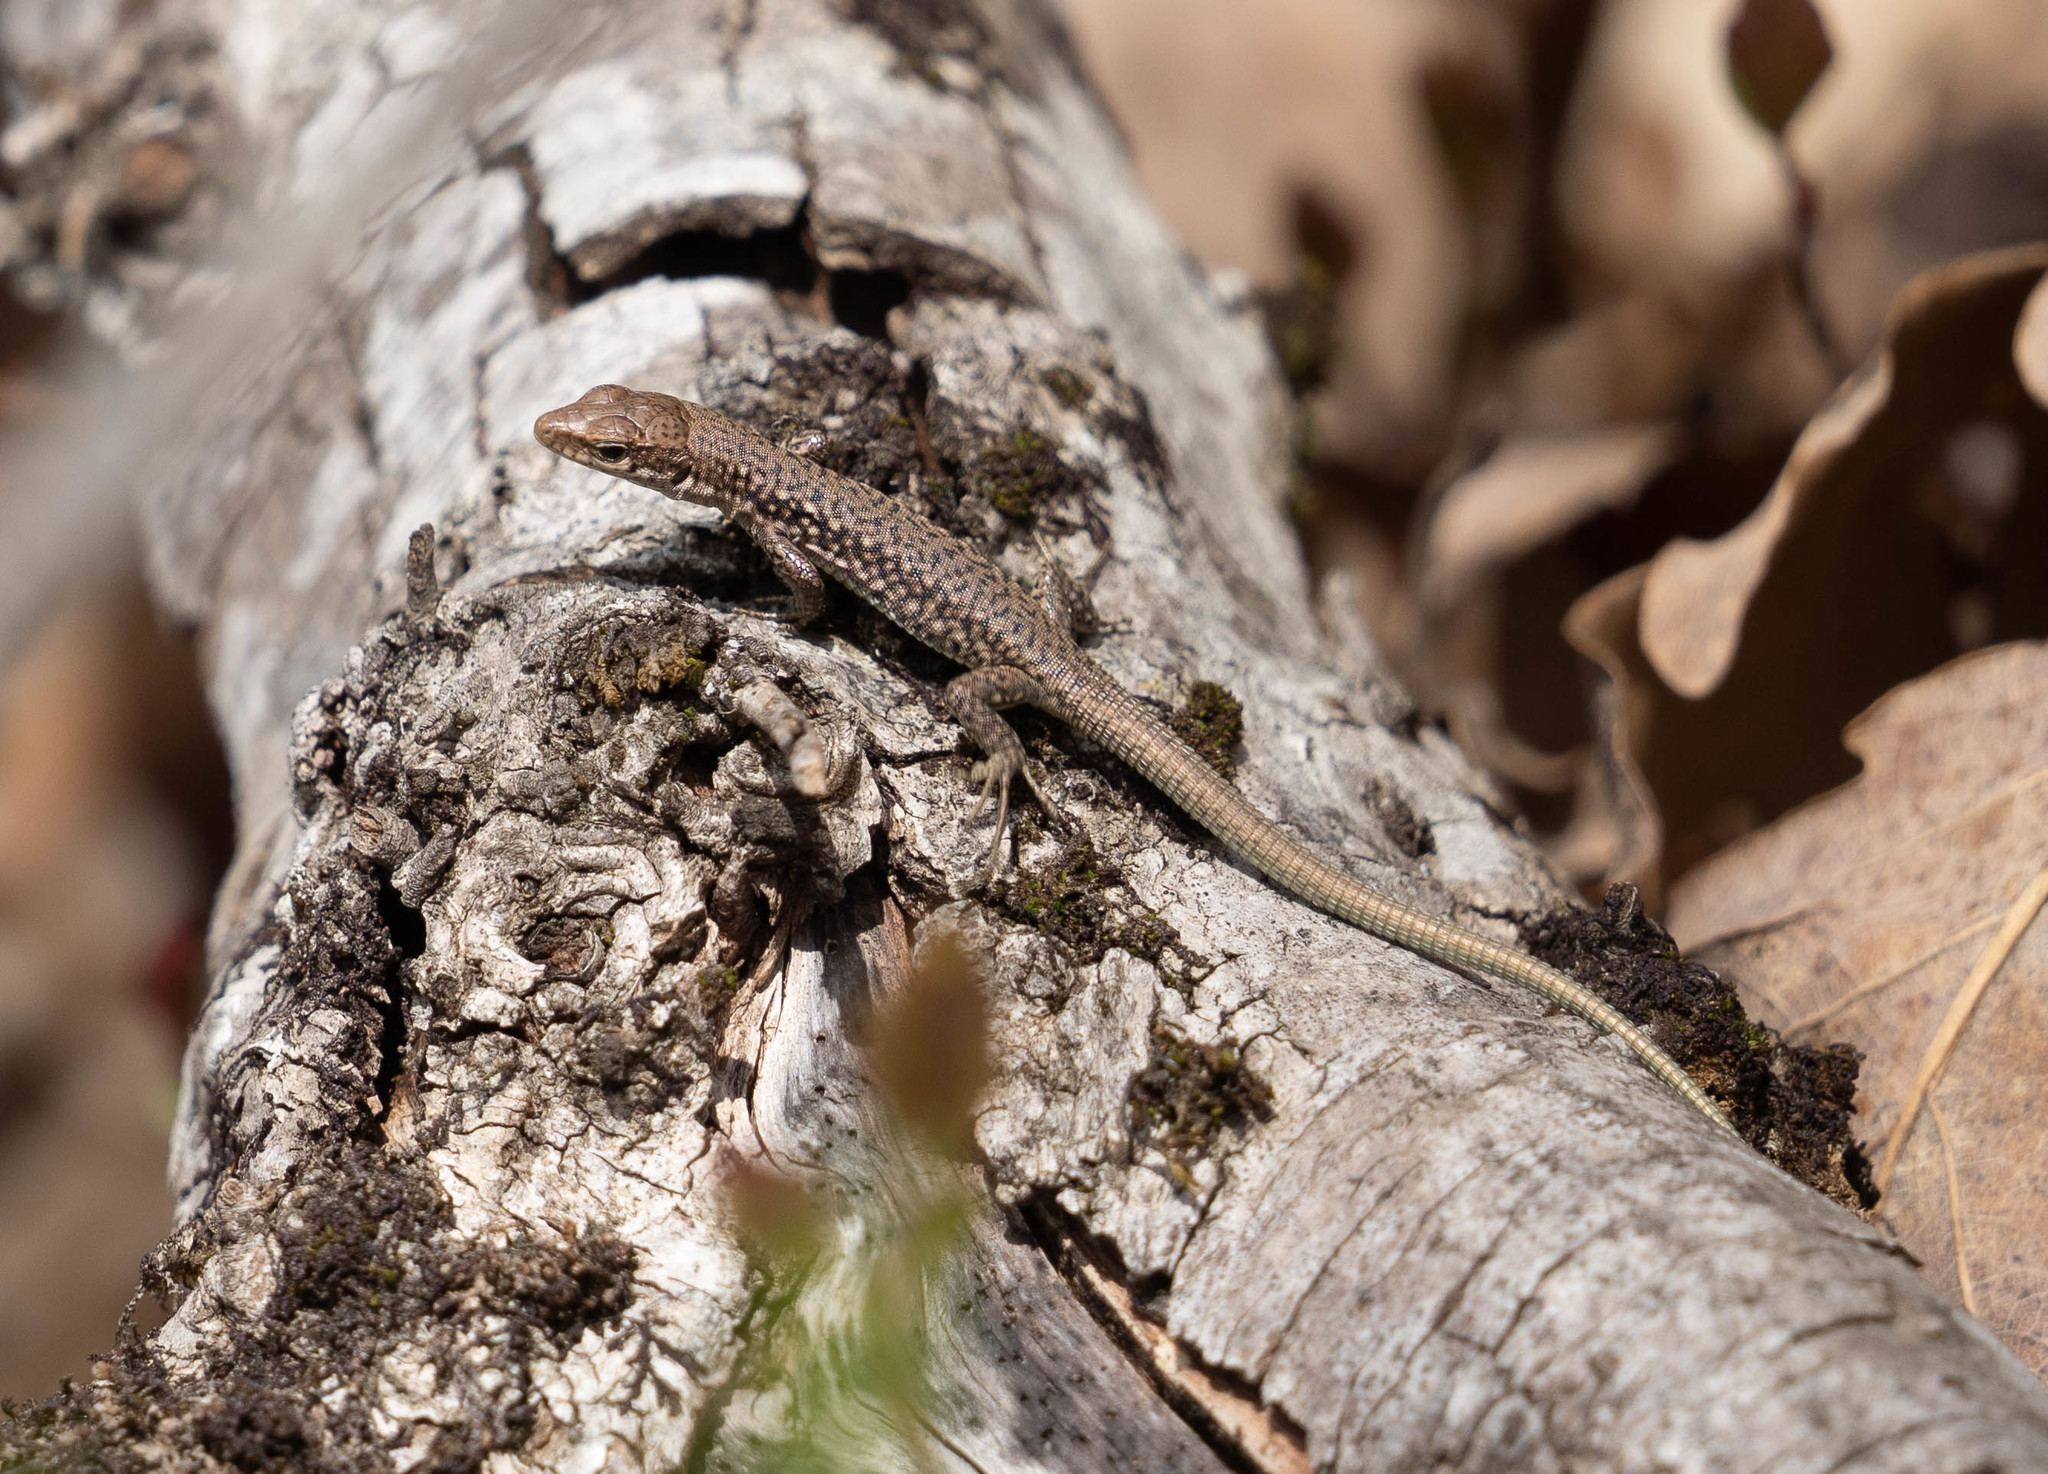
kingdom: Animalia
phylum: Chordata
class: Squamata
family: Lacertidae
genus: Darevskia
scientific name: Darevskia lindholmi
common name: Crimean rock lizard
